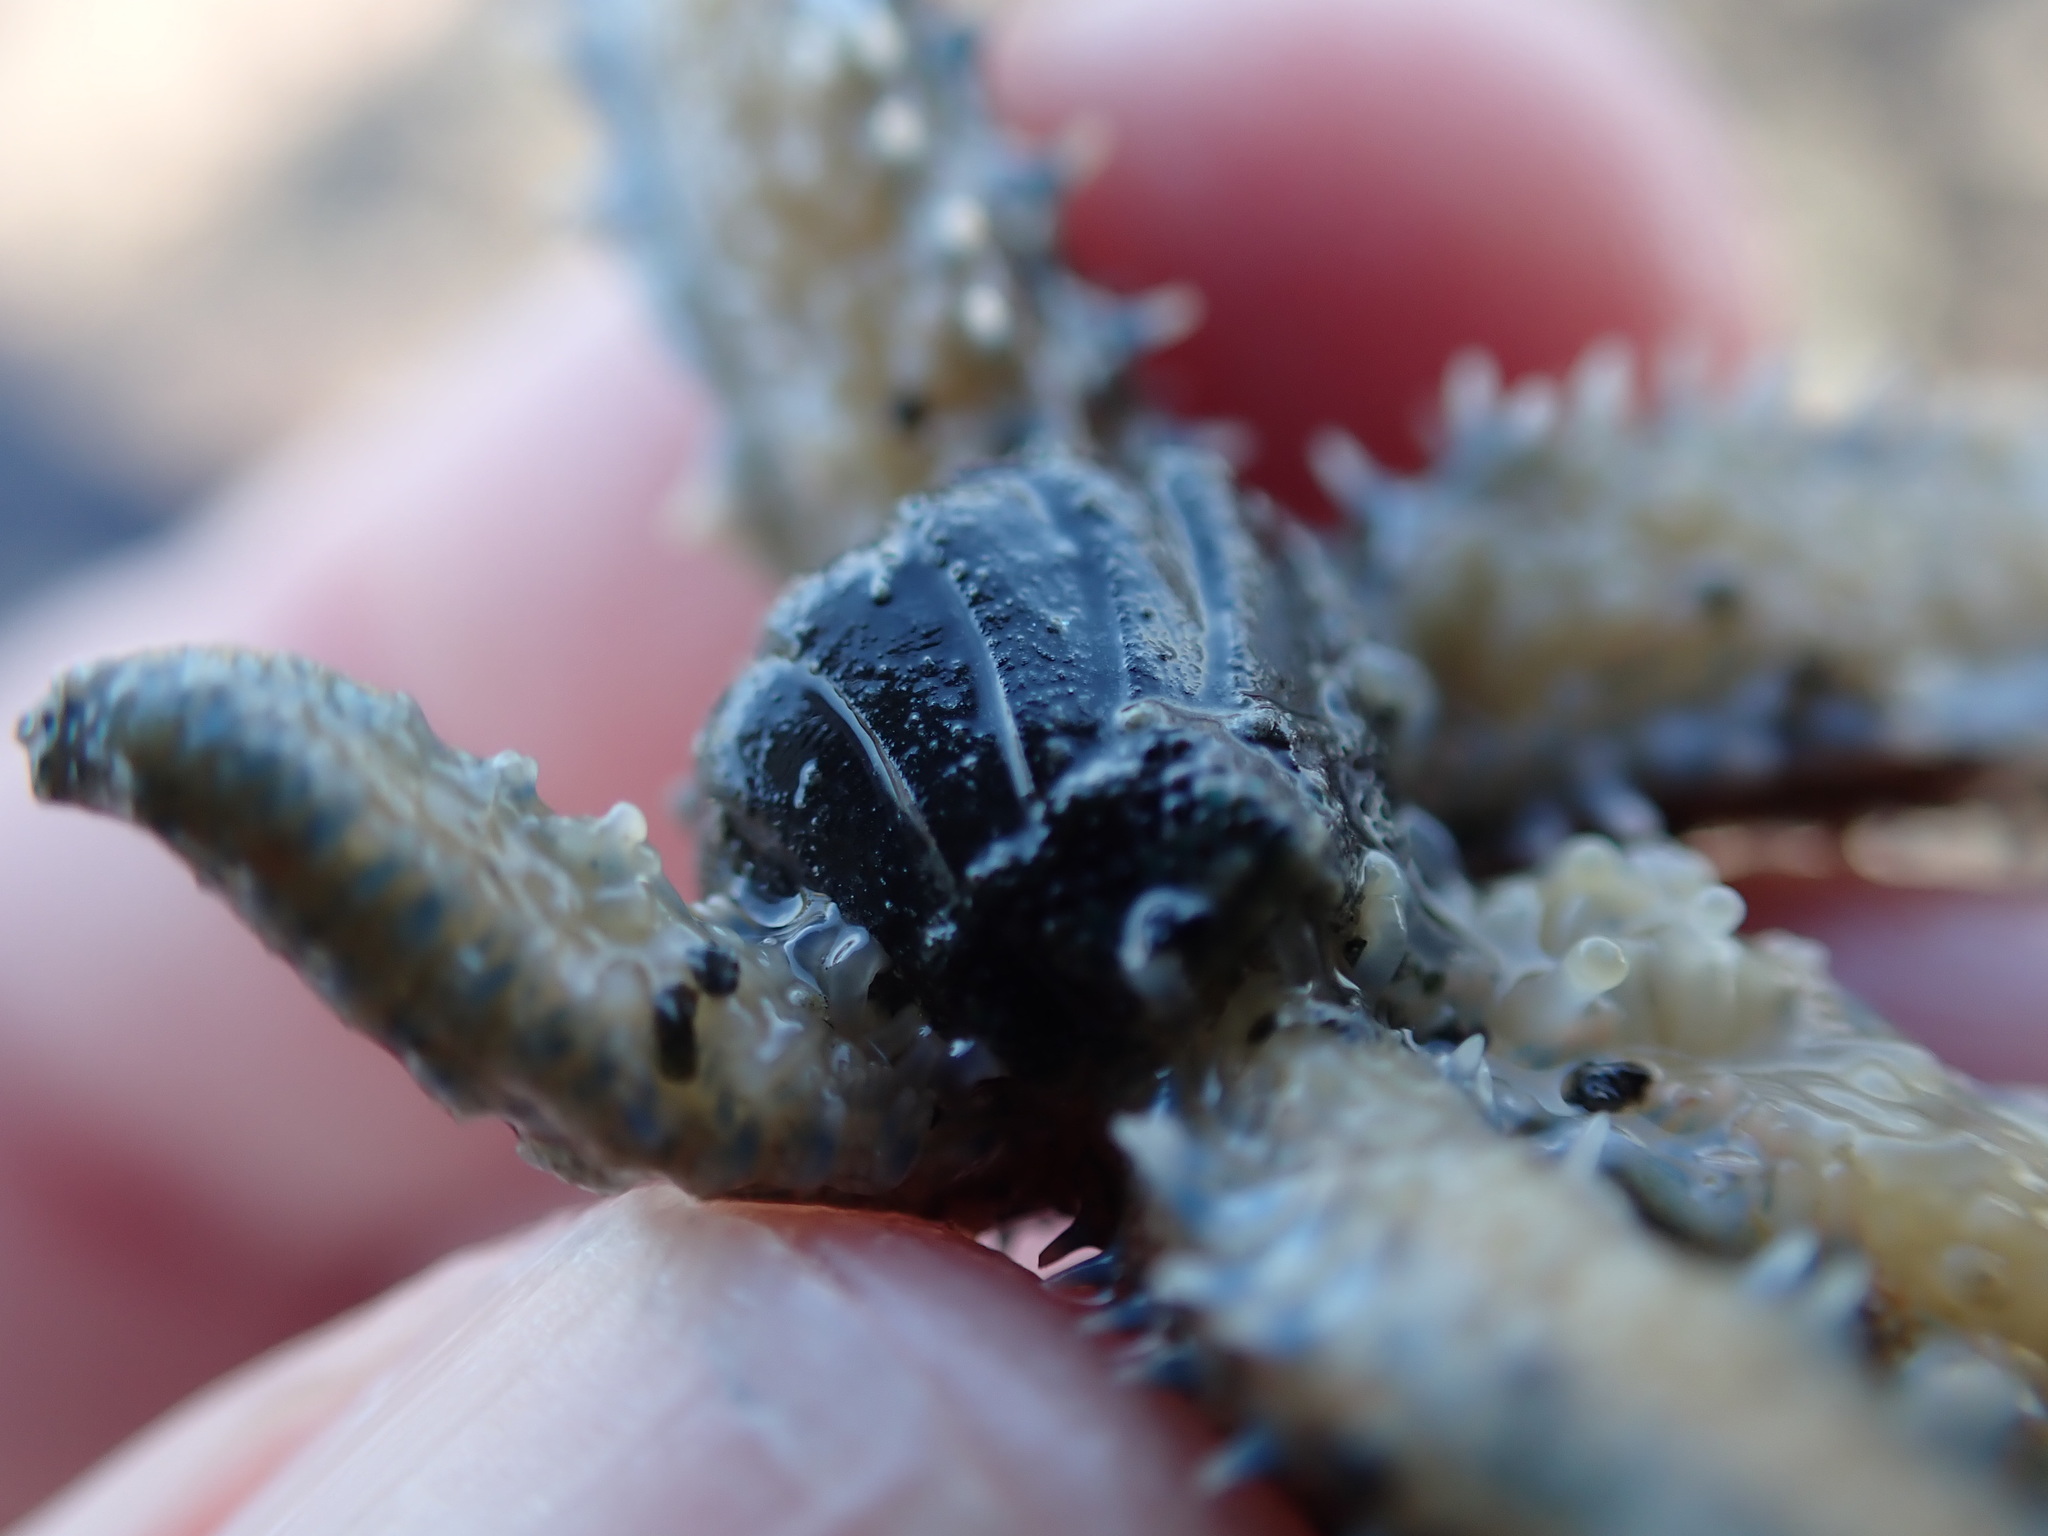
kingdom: Animalia
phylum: Echinodermata
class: Asteroidea
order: Forcipulatida
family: Asteriidae
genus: Coscinasterias
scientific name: Coscinasterias muricata
